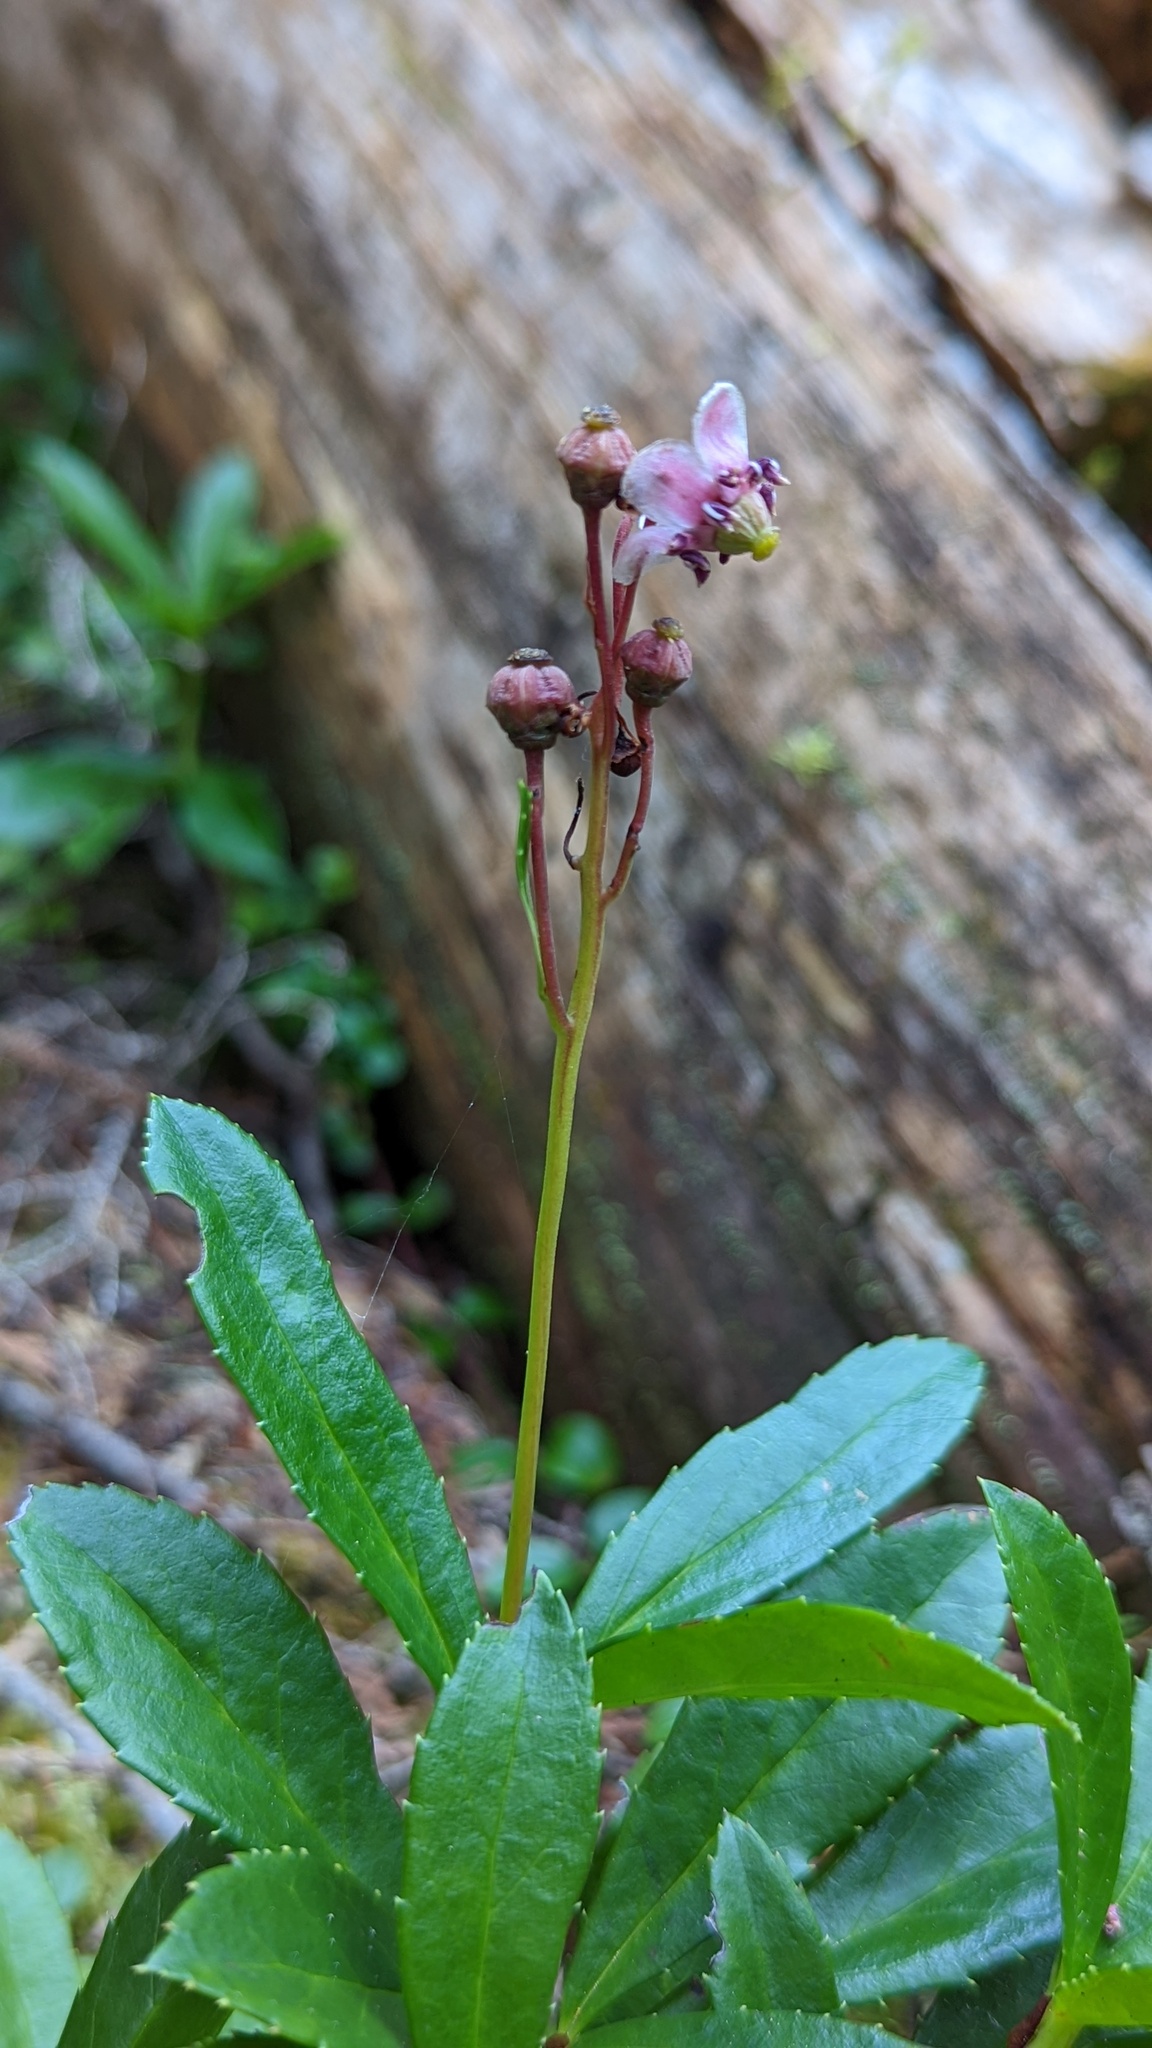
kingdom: Plantae
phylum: Tracheophyta
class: Magnoliopsida
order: Ericales
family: Ericaceae
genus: Chimaphila
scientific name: Chimaphila umbellata
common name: Pipsissewa
